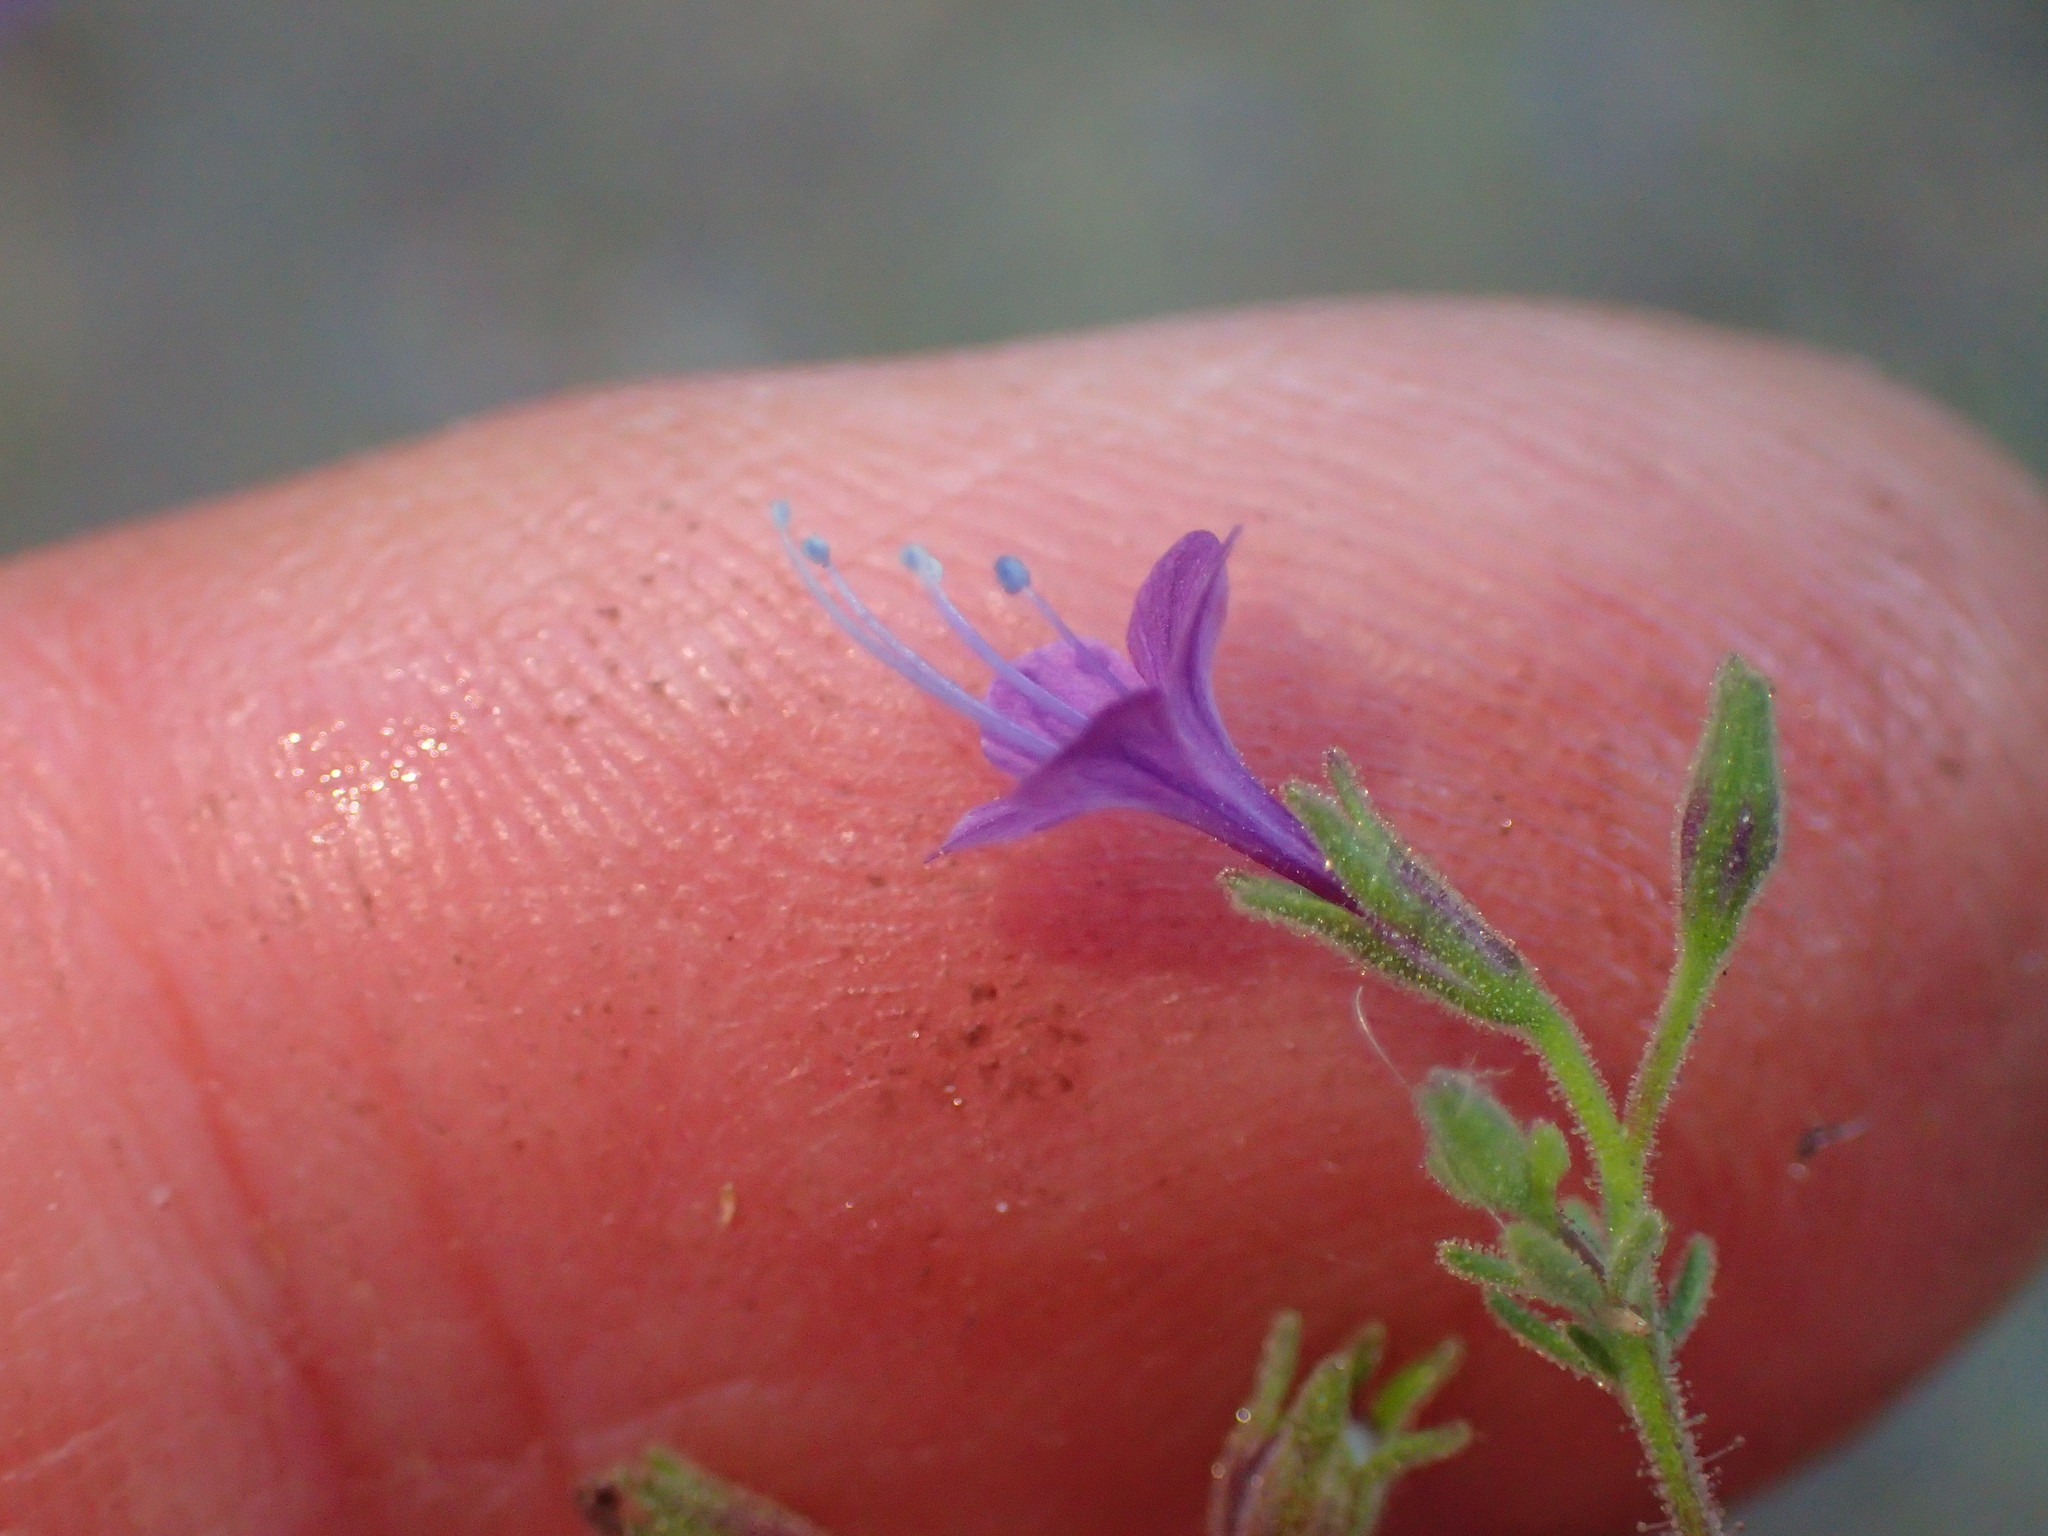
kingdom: Plantae
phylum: Tracheophyta
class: Magnoliopsida
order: Ericales
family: Polemoniaceae
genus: Allophyllum
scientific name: Allophyllum glutinosum
